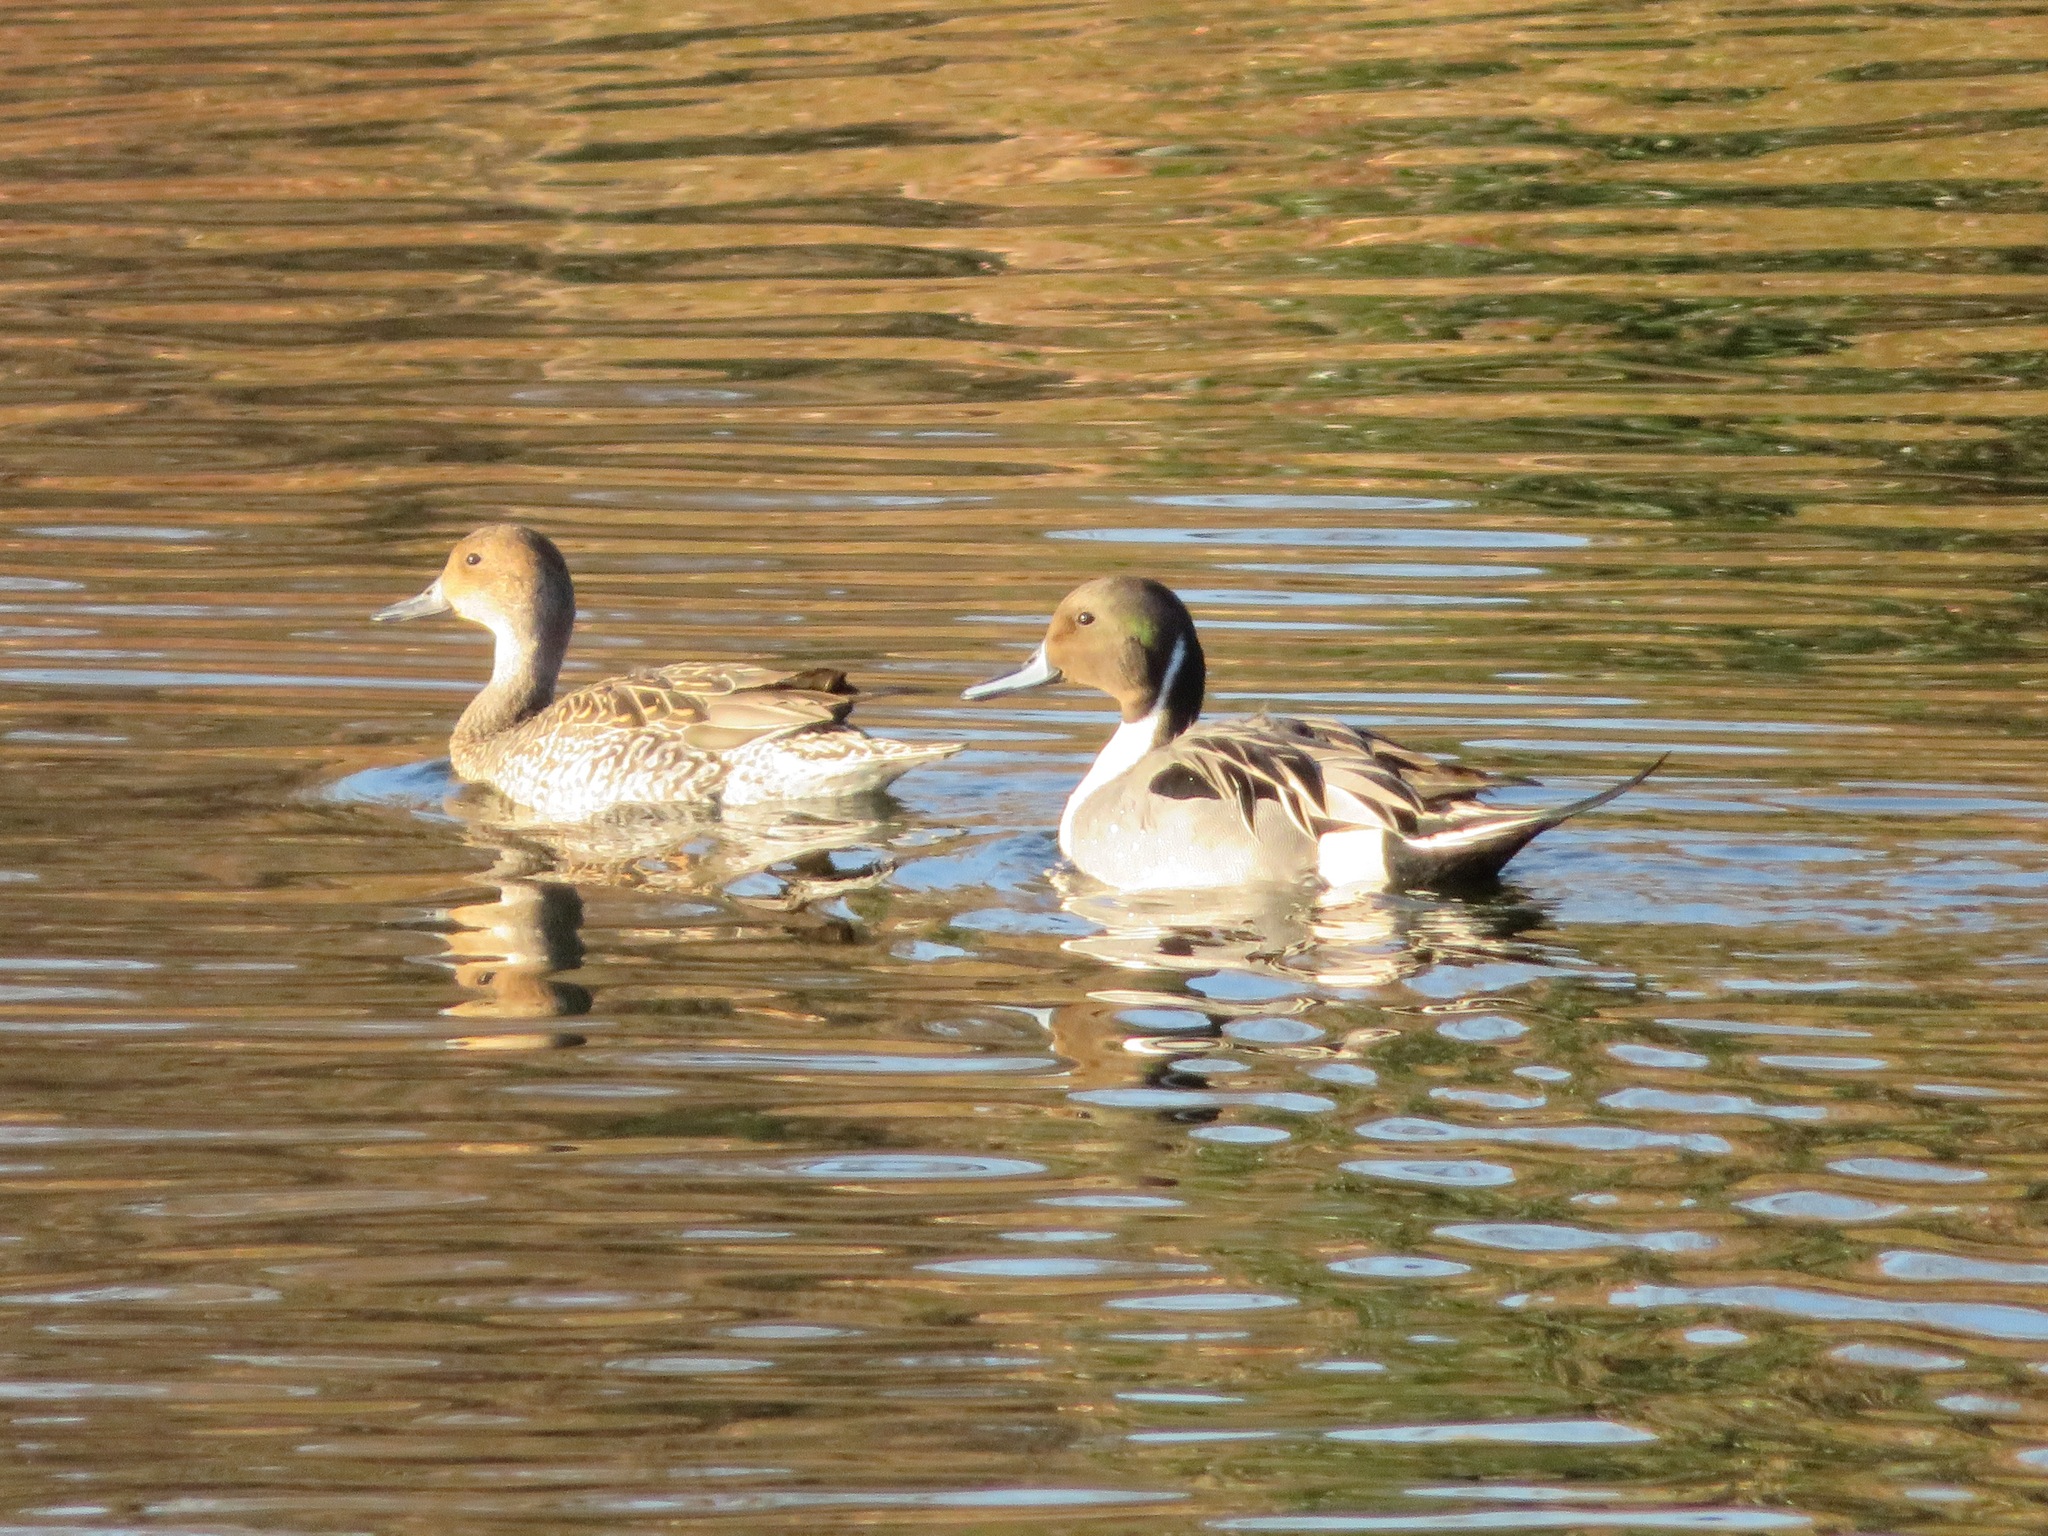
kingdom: Animalia
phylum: Chordata
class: Aves
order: Anseriformes
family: Anatidae
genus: Anas
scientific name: Anas acuta
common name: Northern pintail
